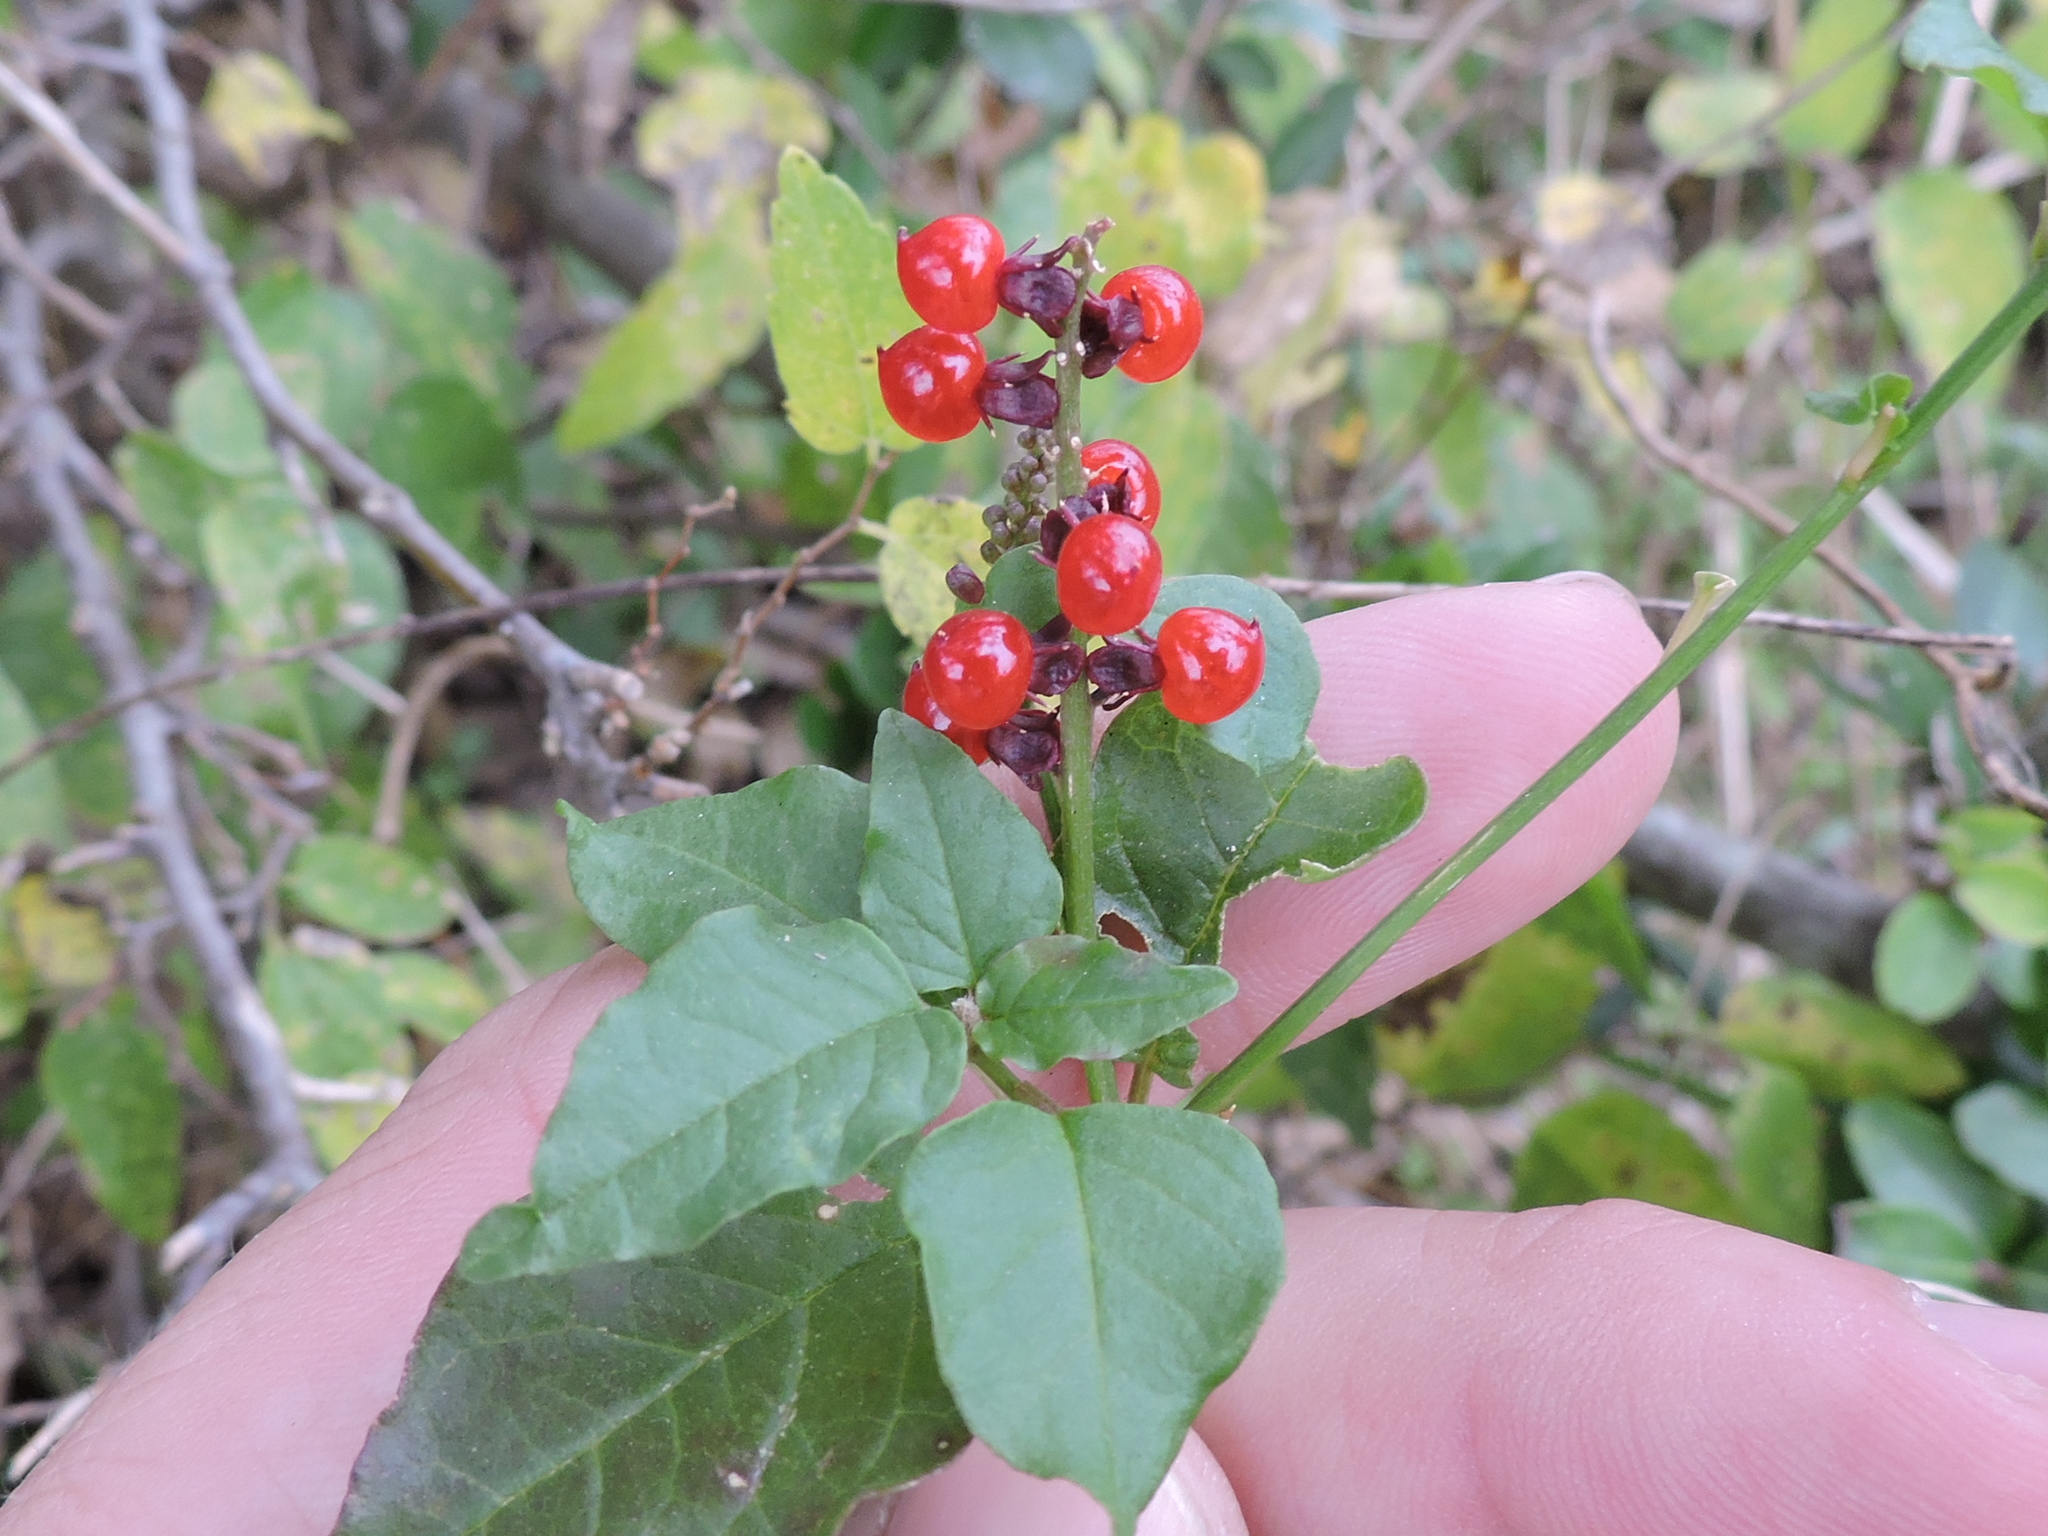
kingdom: Plantae
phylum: Tracheophyta
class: Magnoliopsida
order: Caryophyllales
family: Phytolaccaceae
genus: Rivina
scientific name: Rivina humilis
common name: Rougeplant
